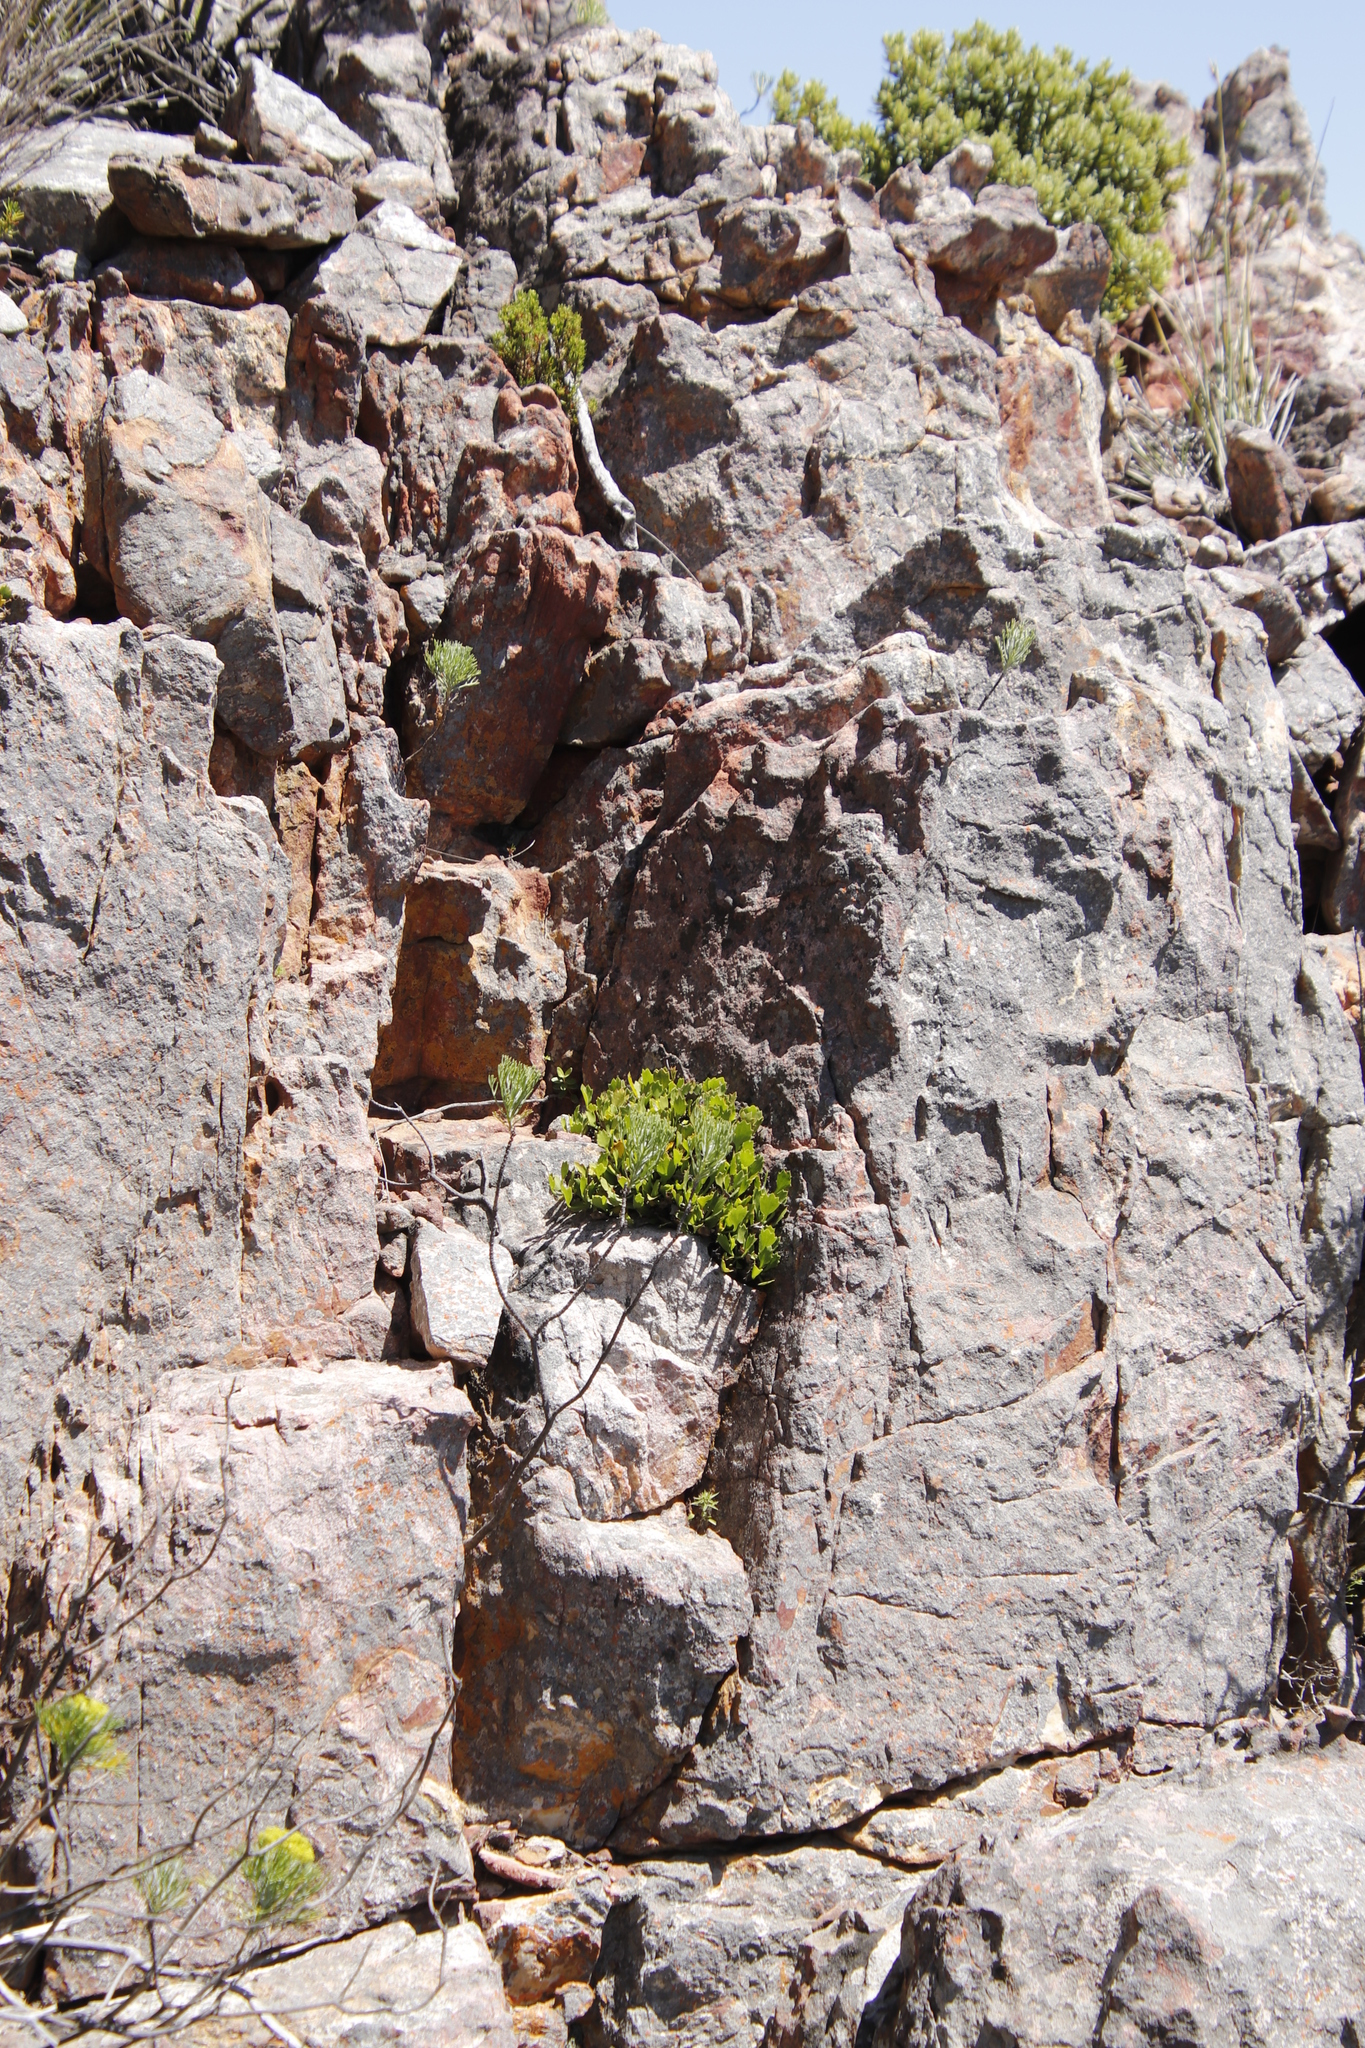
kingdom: Plantae
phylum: Tracheophyta
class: Magnoliopsida
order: Apiales
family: Apiaceae
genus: Centella
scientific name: Centella triloba
